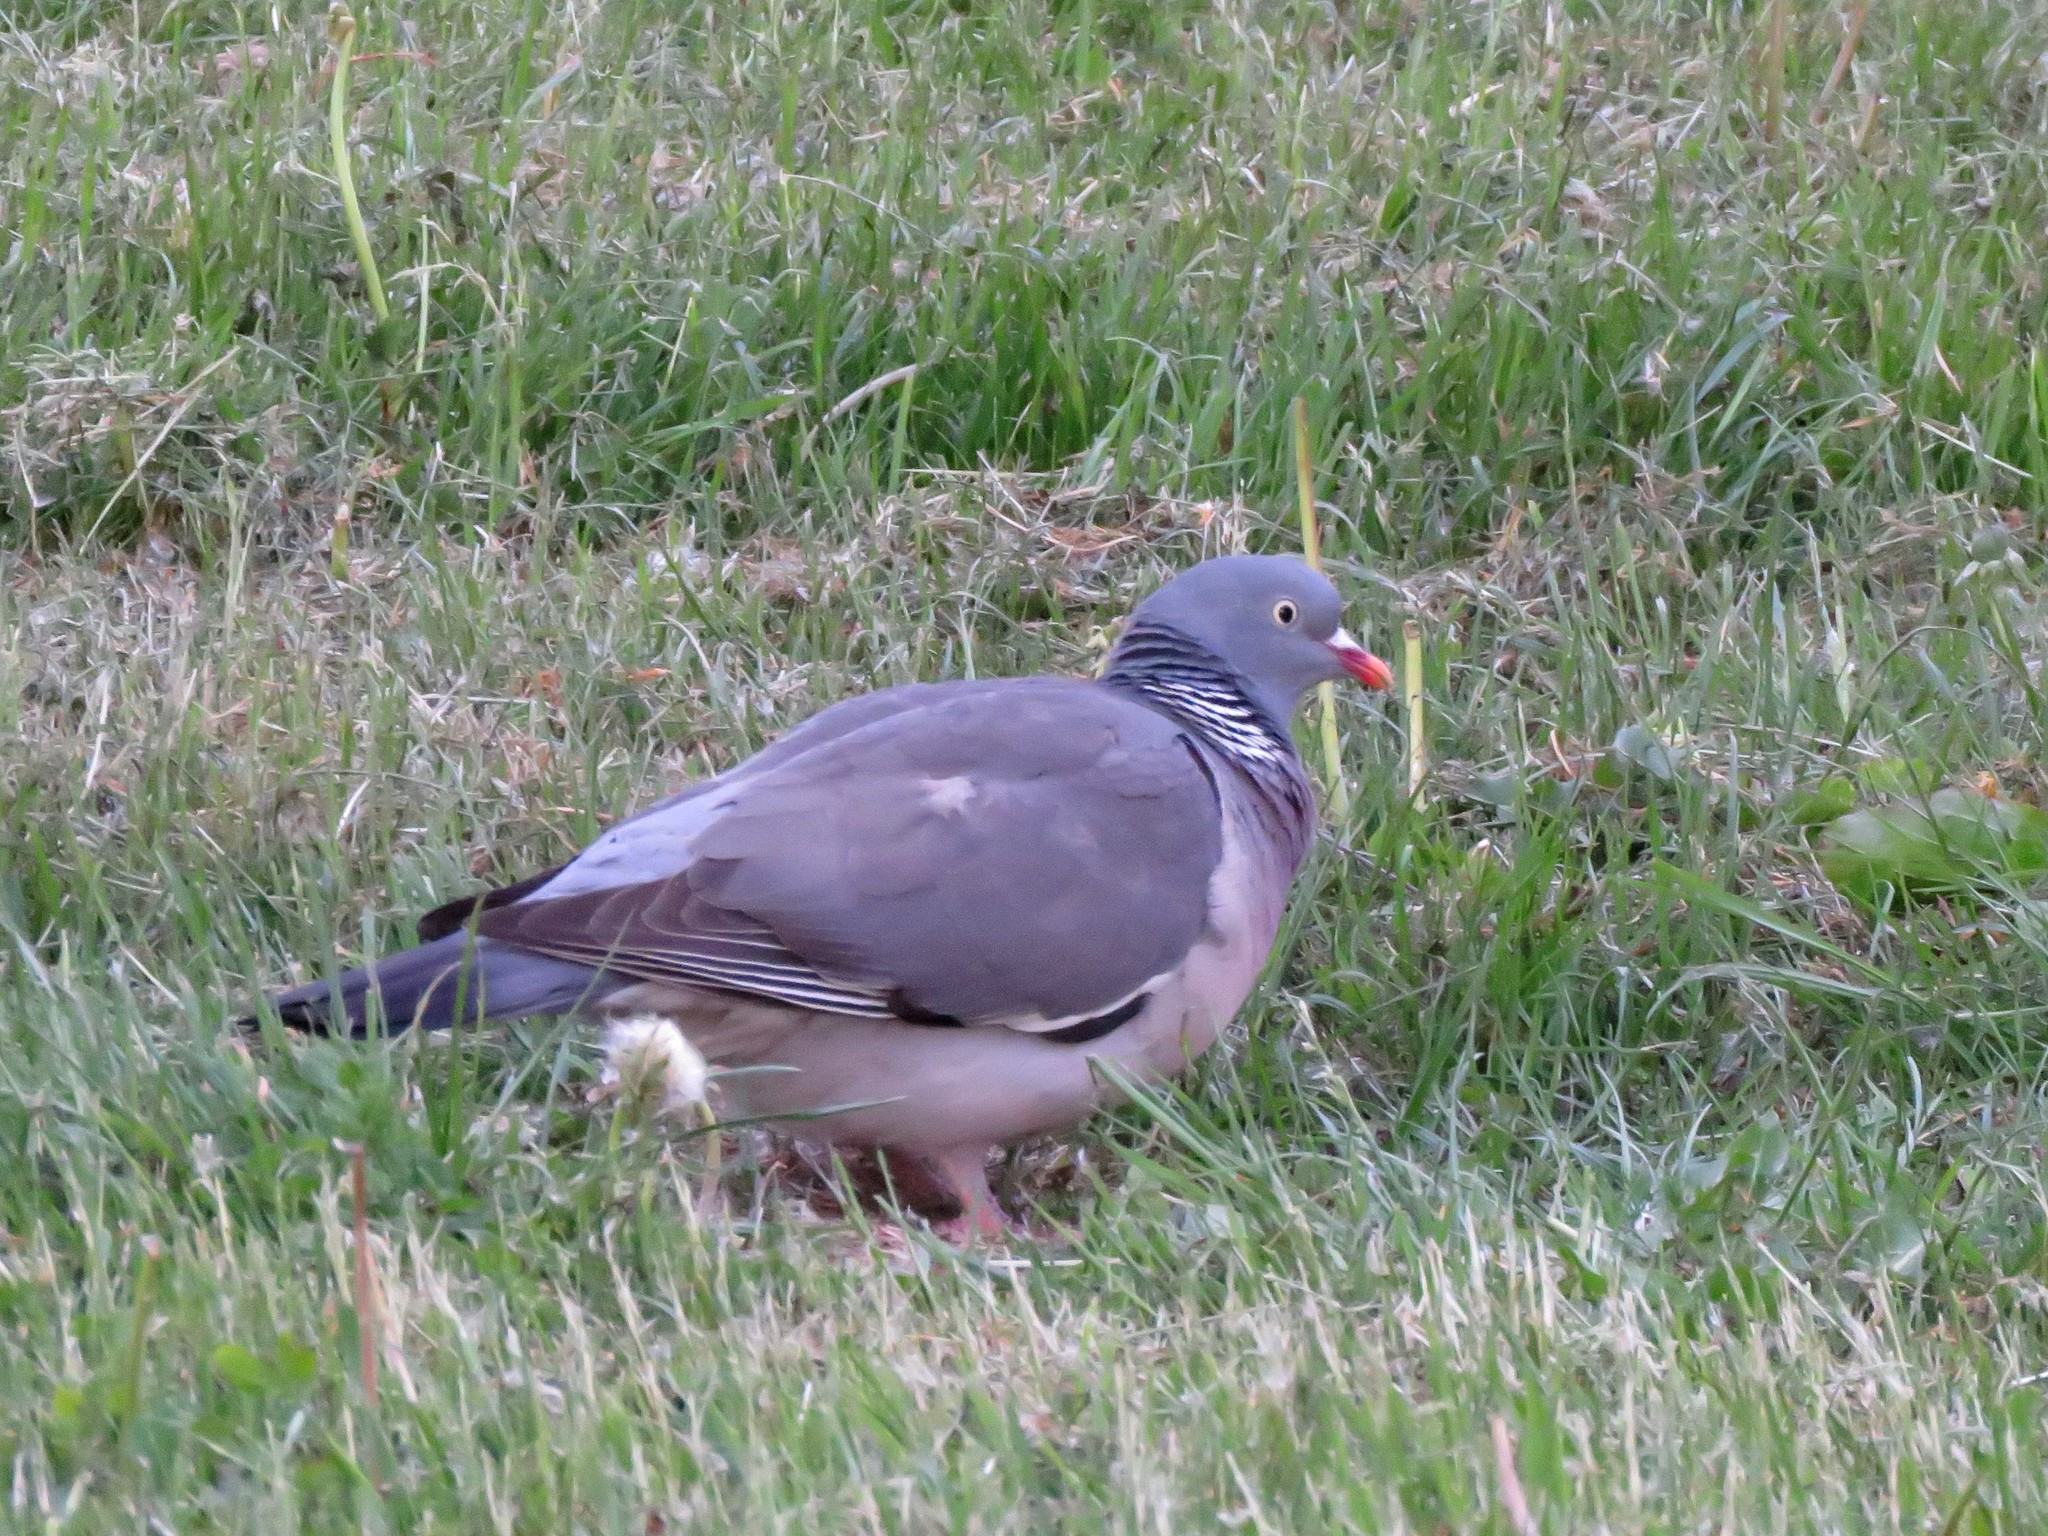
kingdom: Animalia
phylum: Chordata
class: Aves
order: Columbiformes
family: Columbidae
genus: Columba
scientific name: Columba palumbus
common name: Common wood pigeon
